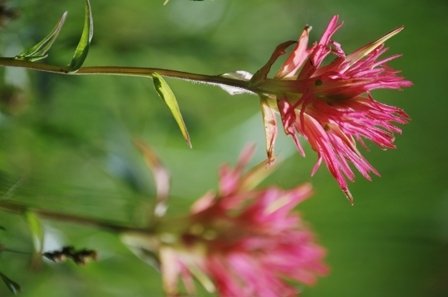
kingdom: Plantae
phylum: Tracheophyta
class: Magnoliopsida
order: Lamiales
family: Orobanchaceae
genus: Castilleja
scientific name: Castilleja parviflora
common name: Mountain paintbrush
